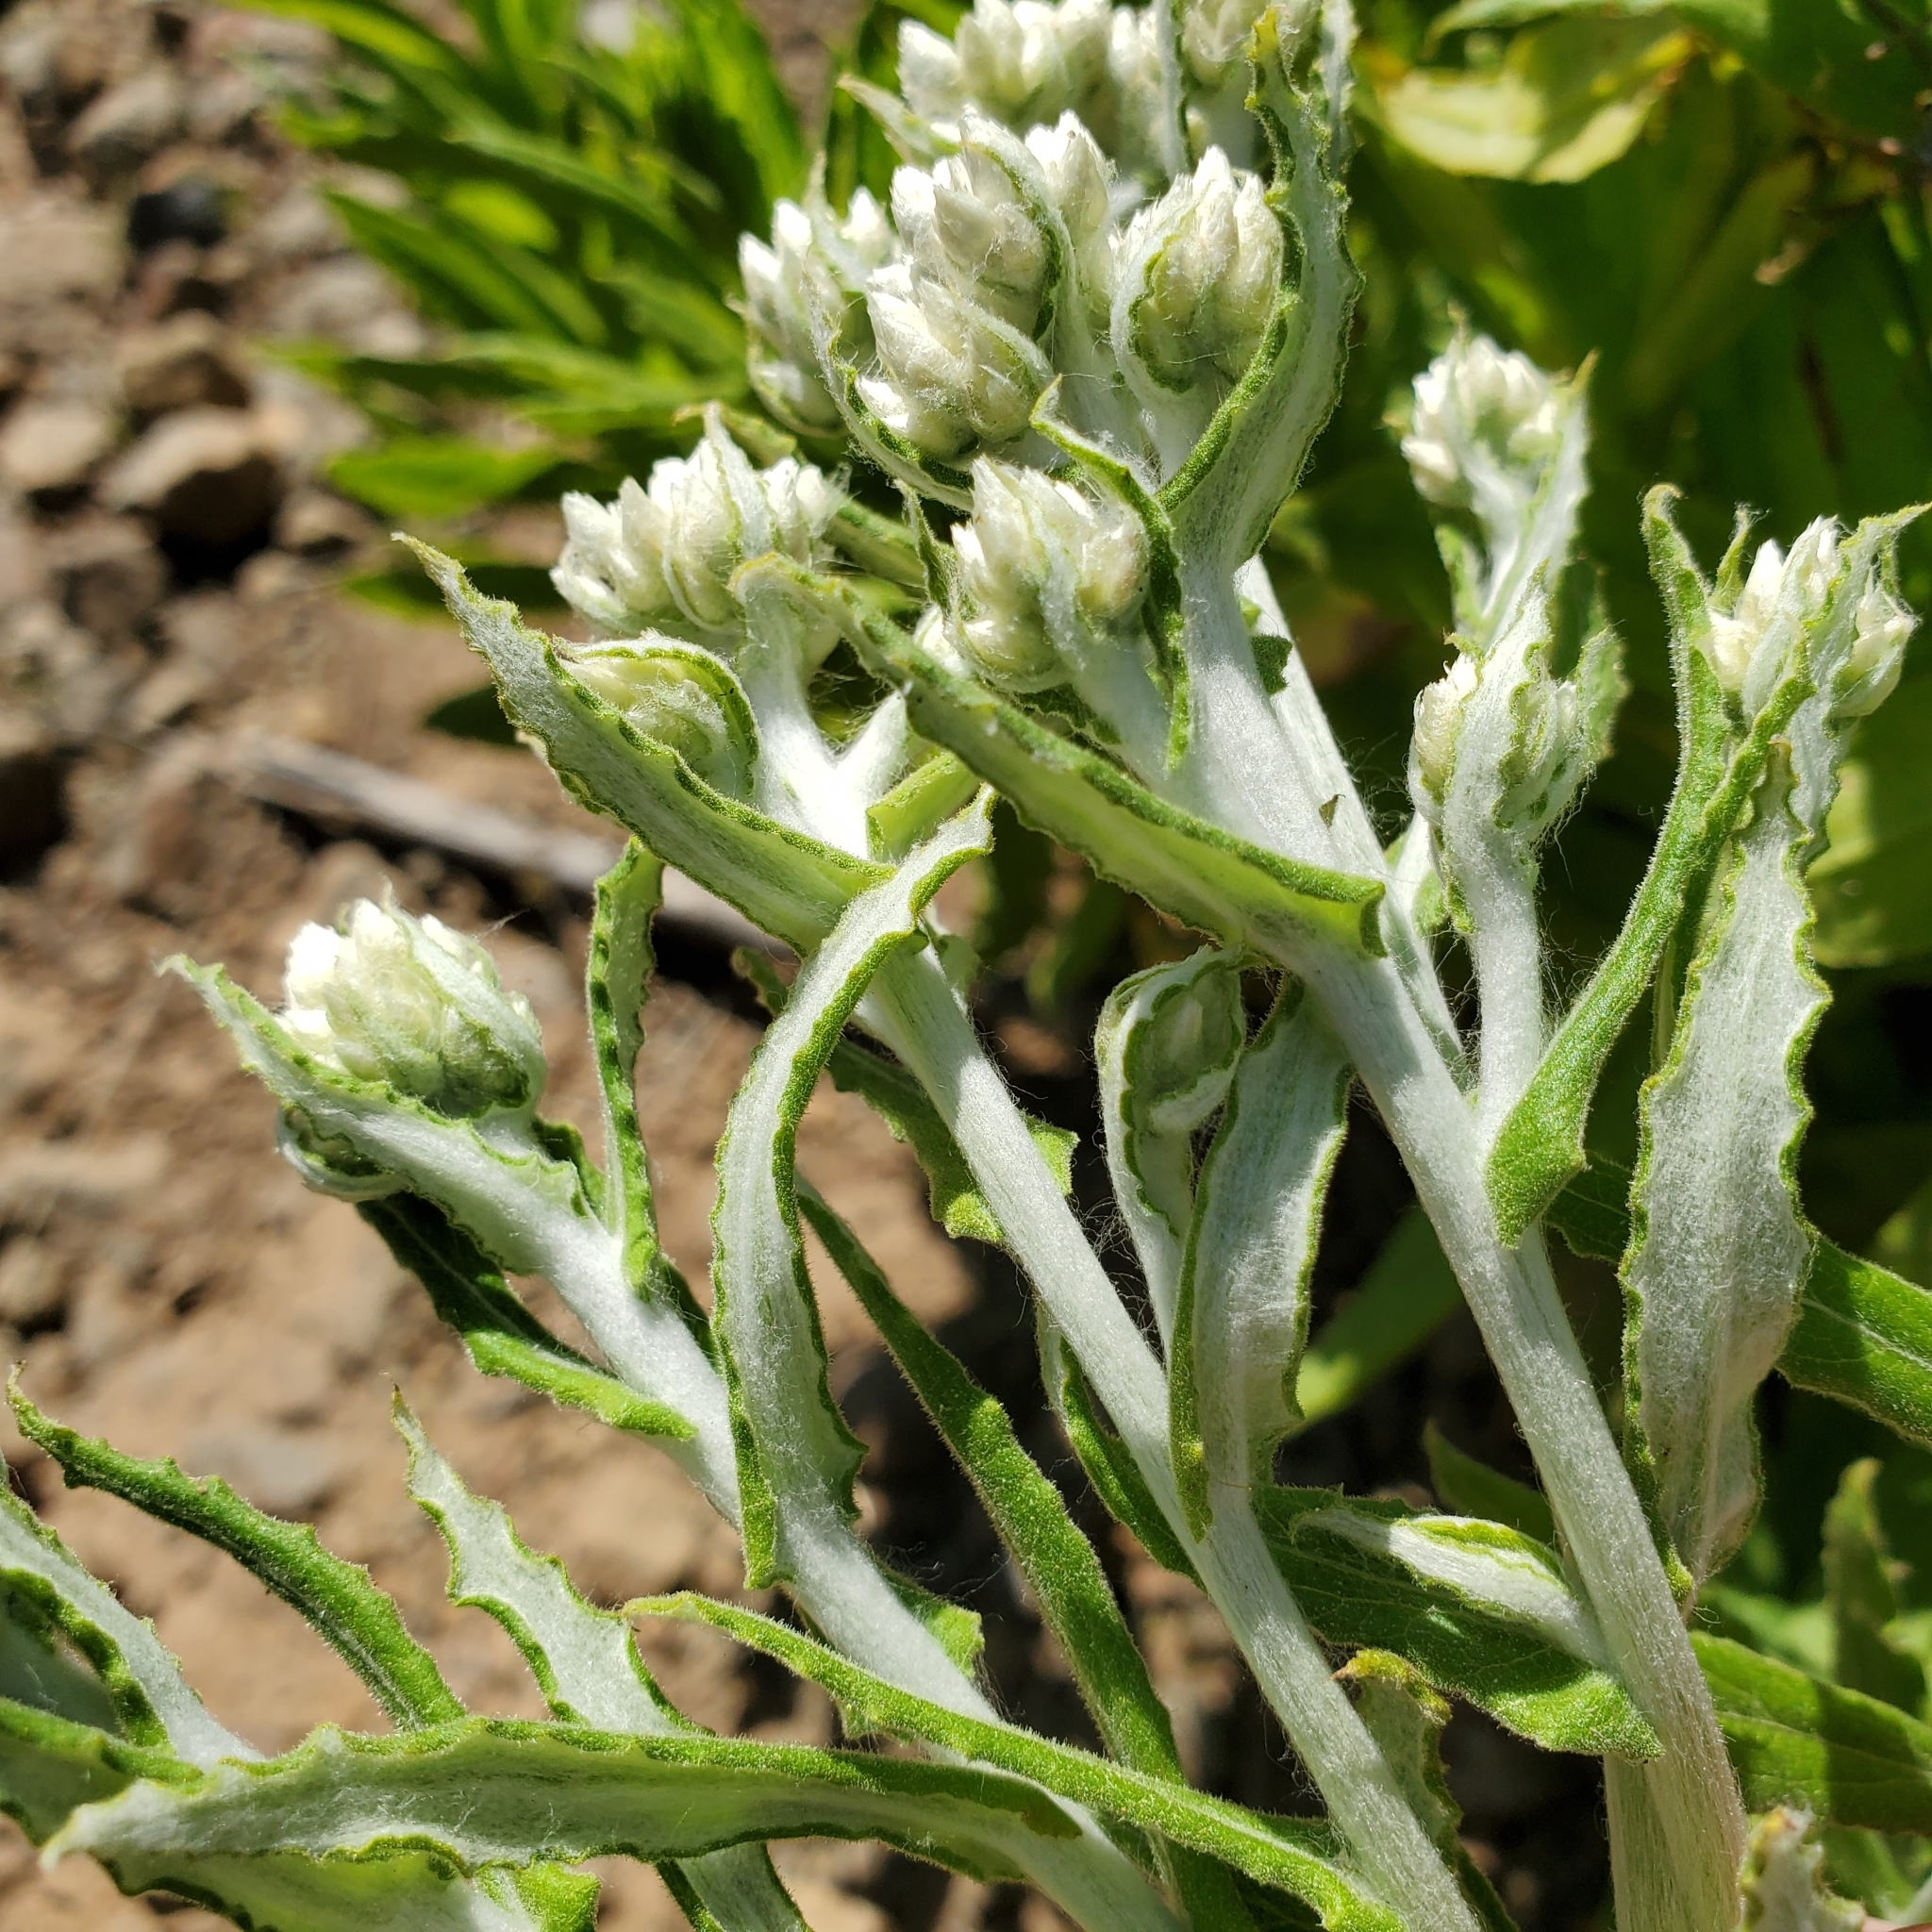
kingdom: Plantae
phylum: Tracheophyta
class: Magnoliopsida
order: Asterales
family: Asteraceae
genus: Pseudognaphalium
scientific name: Pseudognaphalium biolettii
